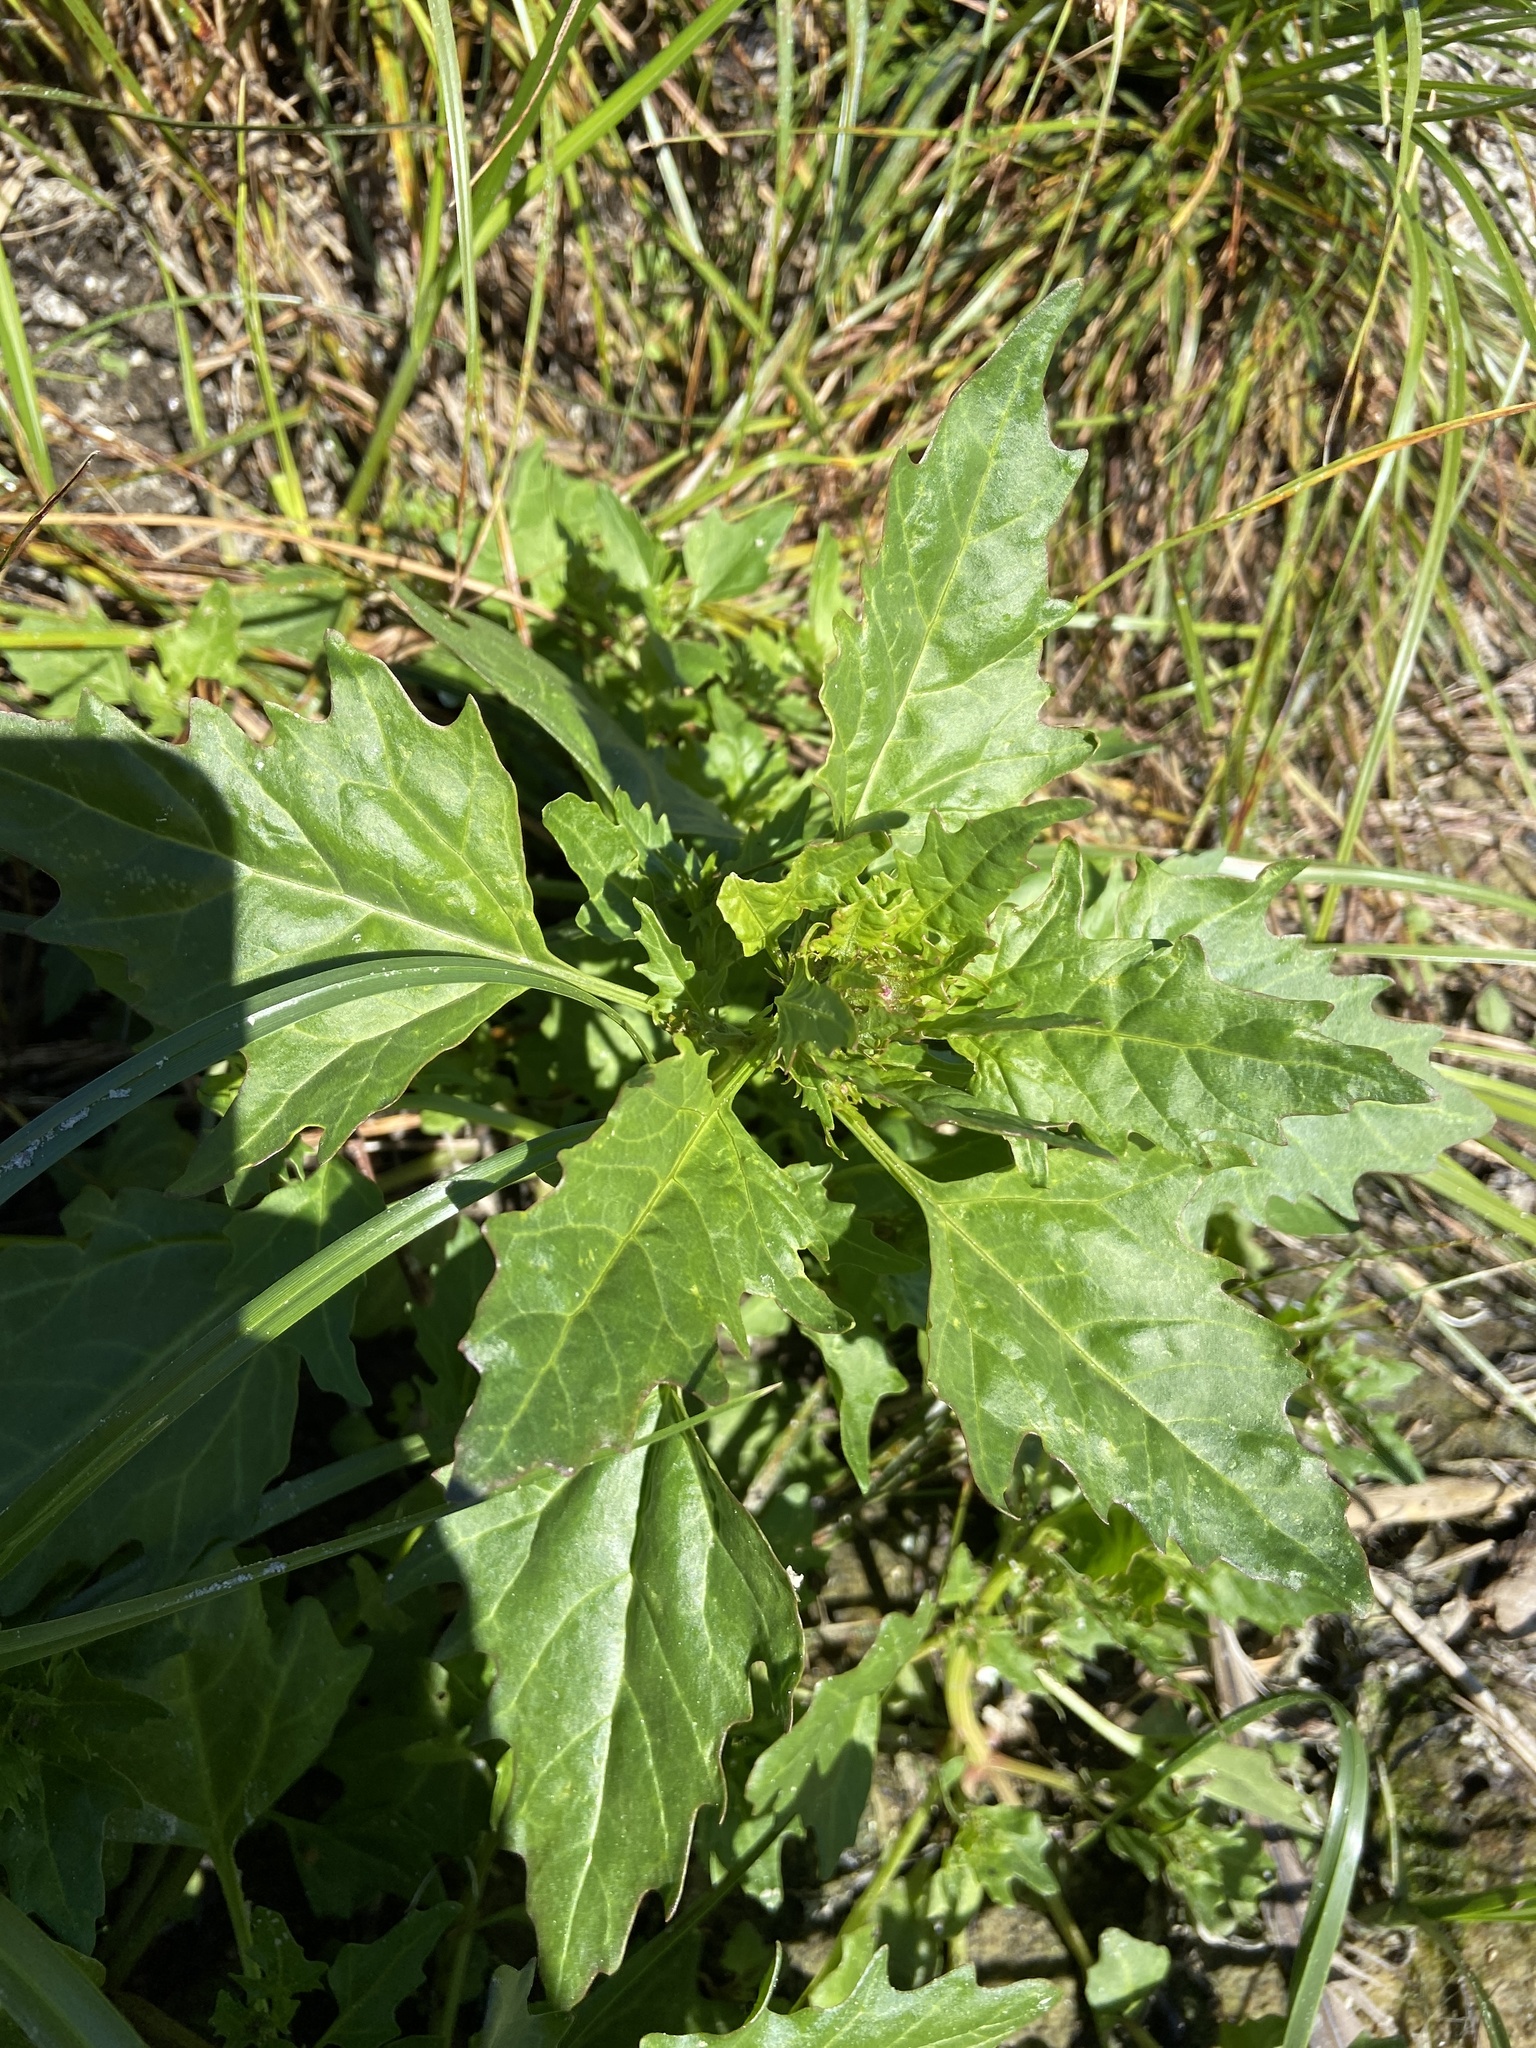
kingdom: Plantae
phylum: Tracheophyta
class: Magnoliopsida
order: Caryophyllales
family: Amaranthaceae
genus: Oxybasis
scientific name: Oxybasis rubra
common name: Red goosefoot
